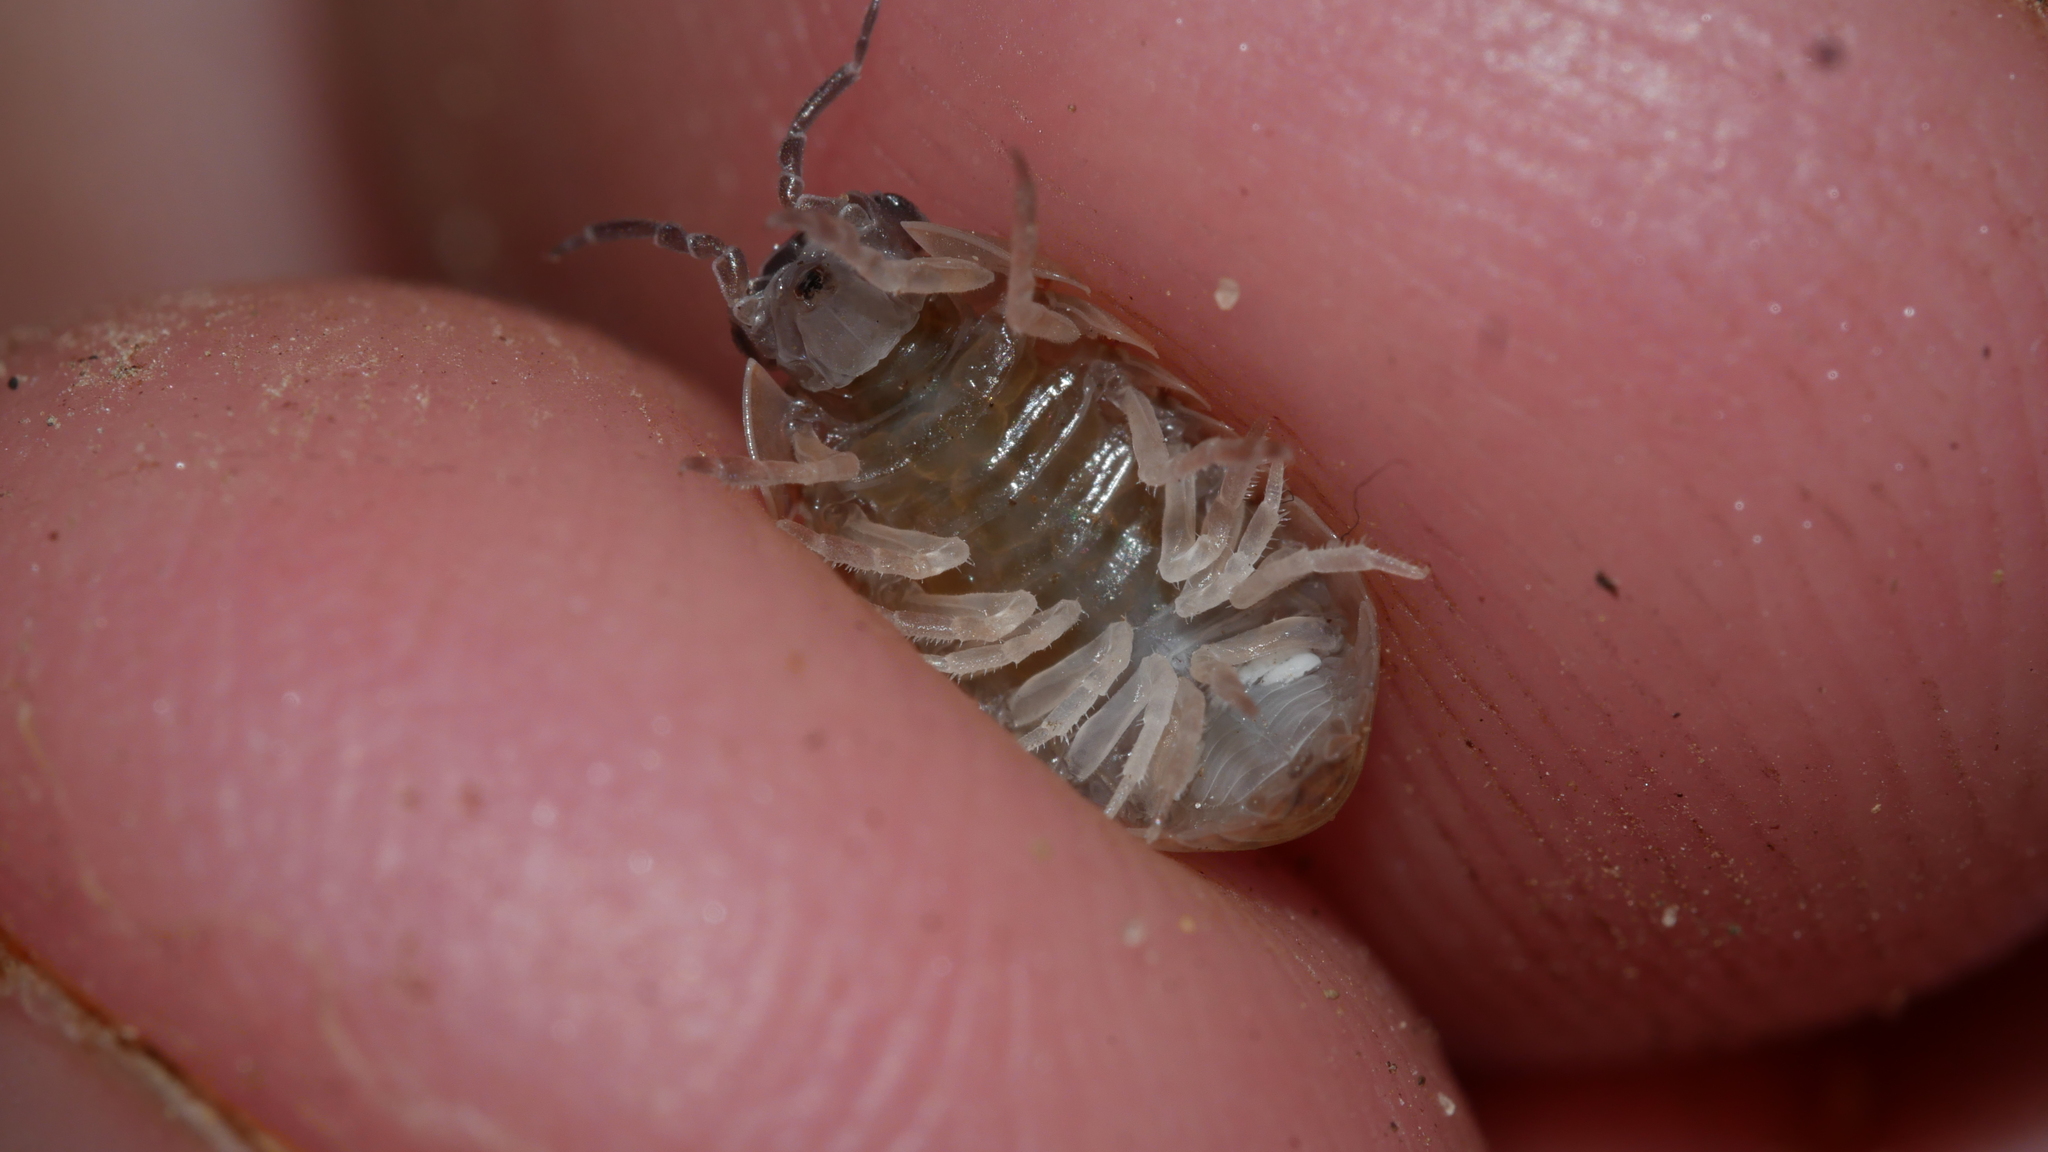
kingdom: Animalia
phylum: Arthropoda
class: Malacostraca
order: Isopoda
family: Armadillidiidae
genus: Armadillidium
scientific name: Armadillidium vulgare
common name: Common pill woodlouse
